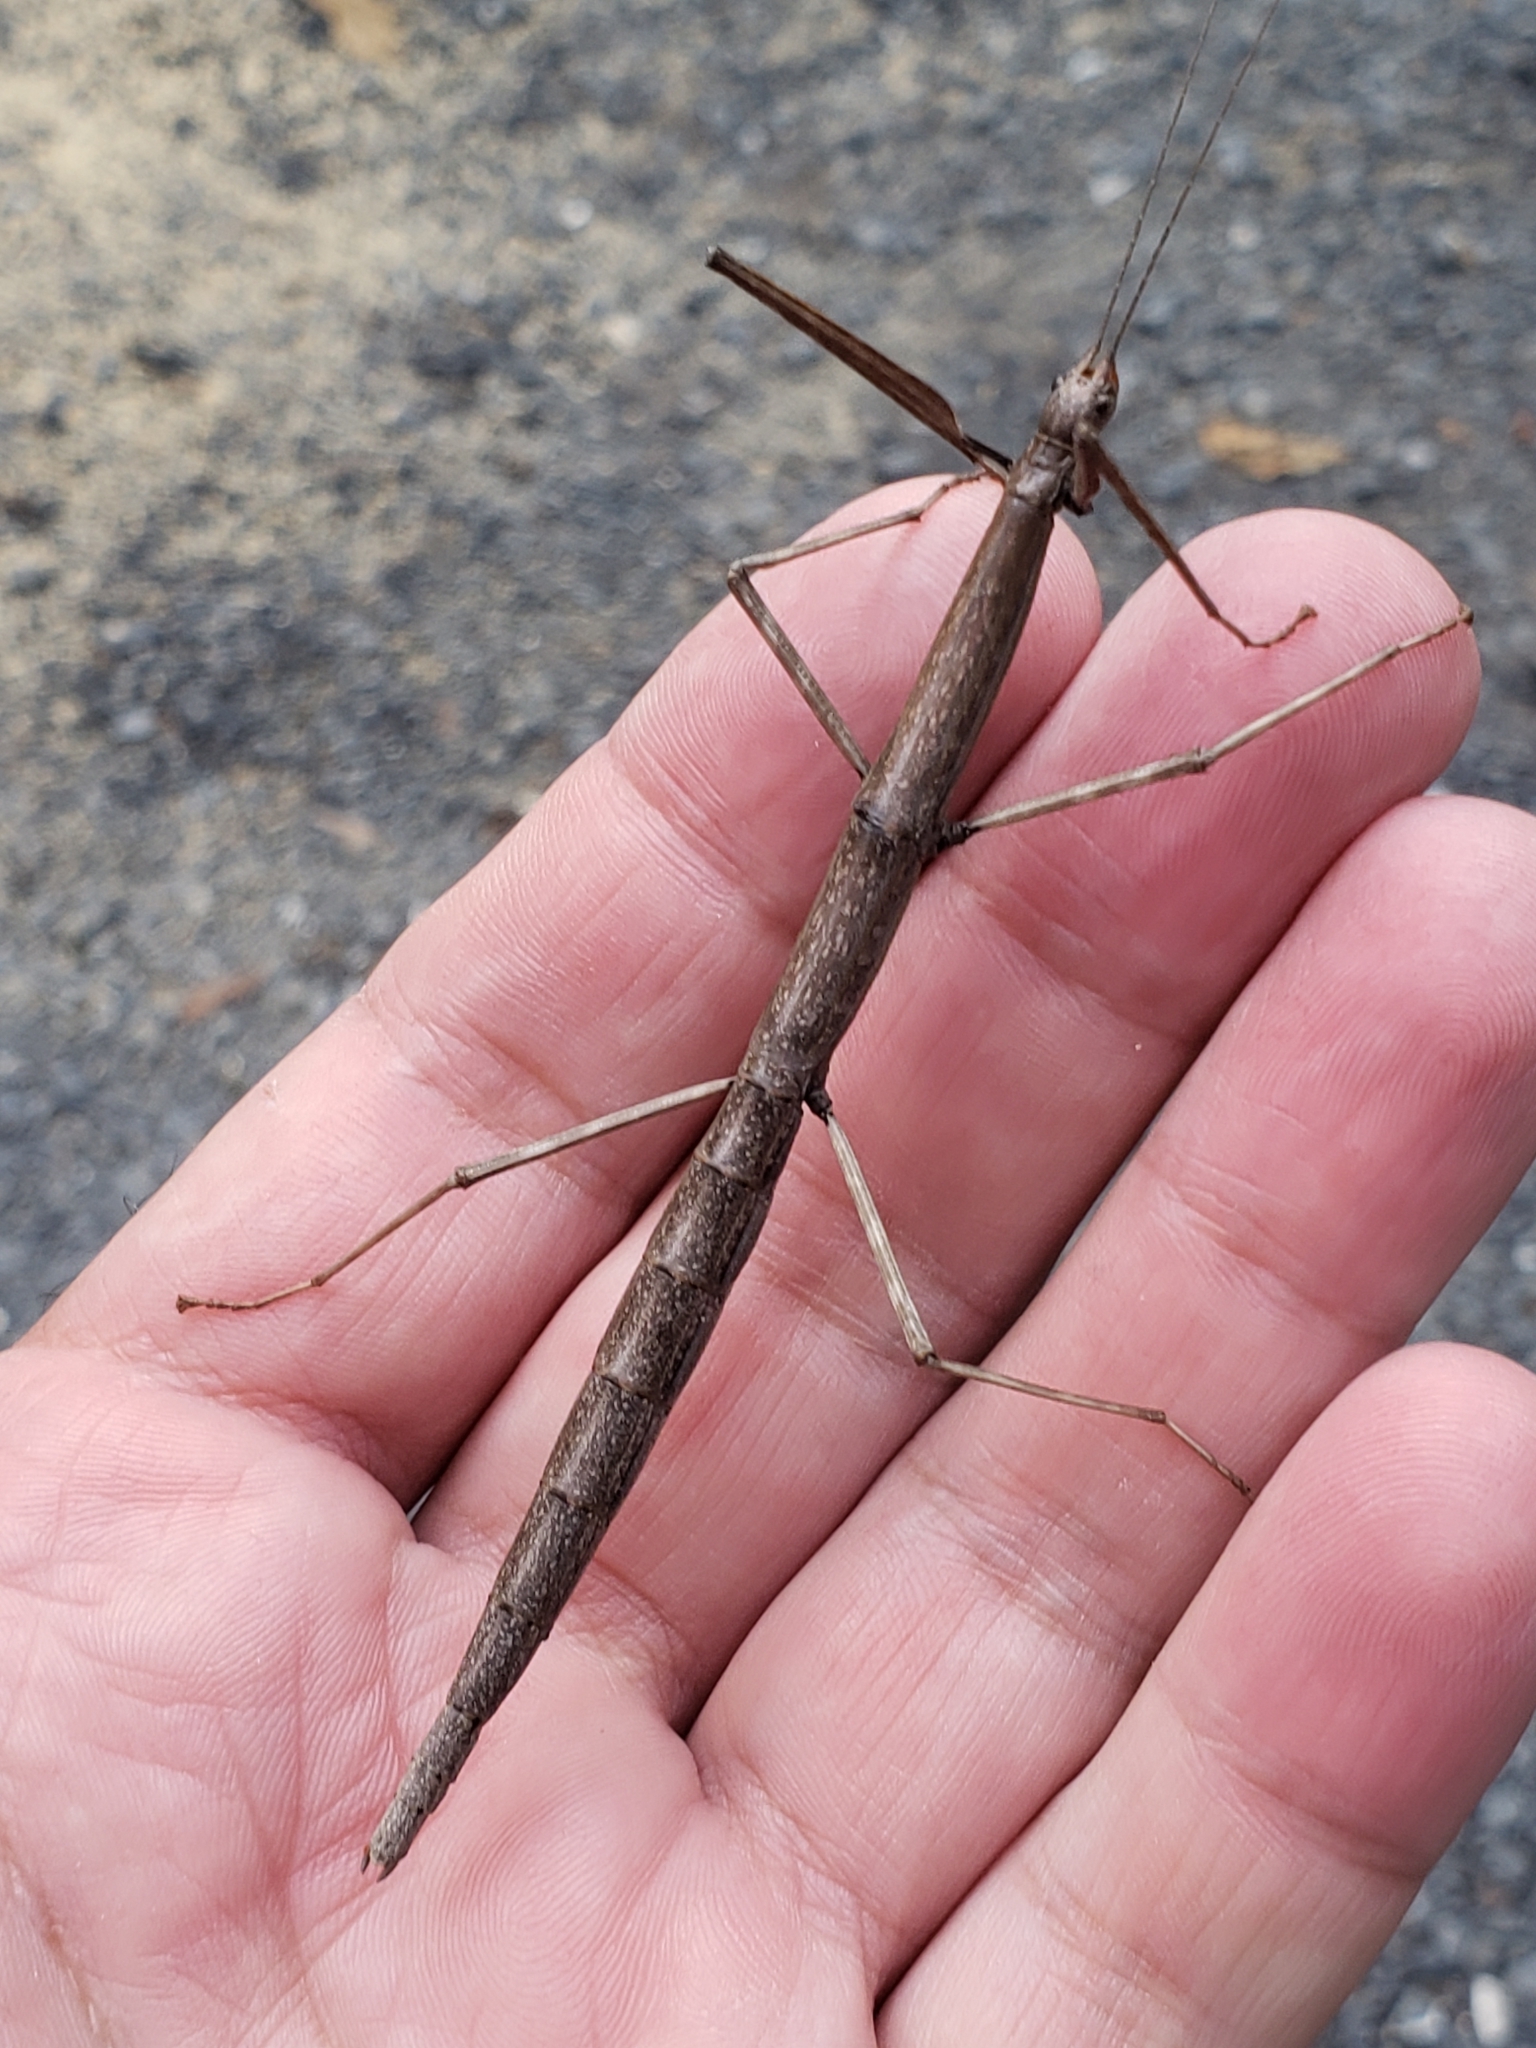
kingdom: Animalia
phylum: Arthropoda
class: Insecta
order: Phasmida
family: Diapheromeridae
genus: Diapheromera
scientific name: Diapheromera femorata
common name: Common american walkingstick
